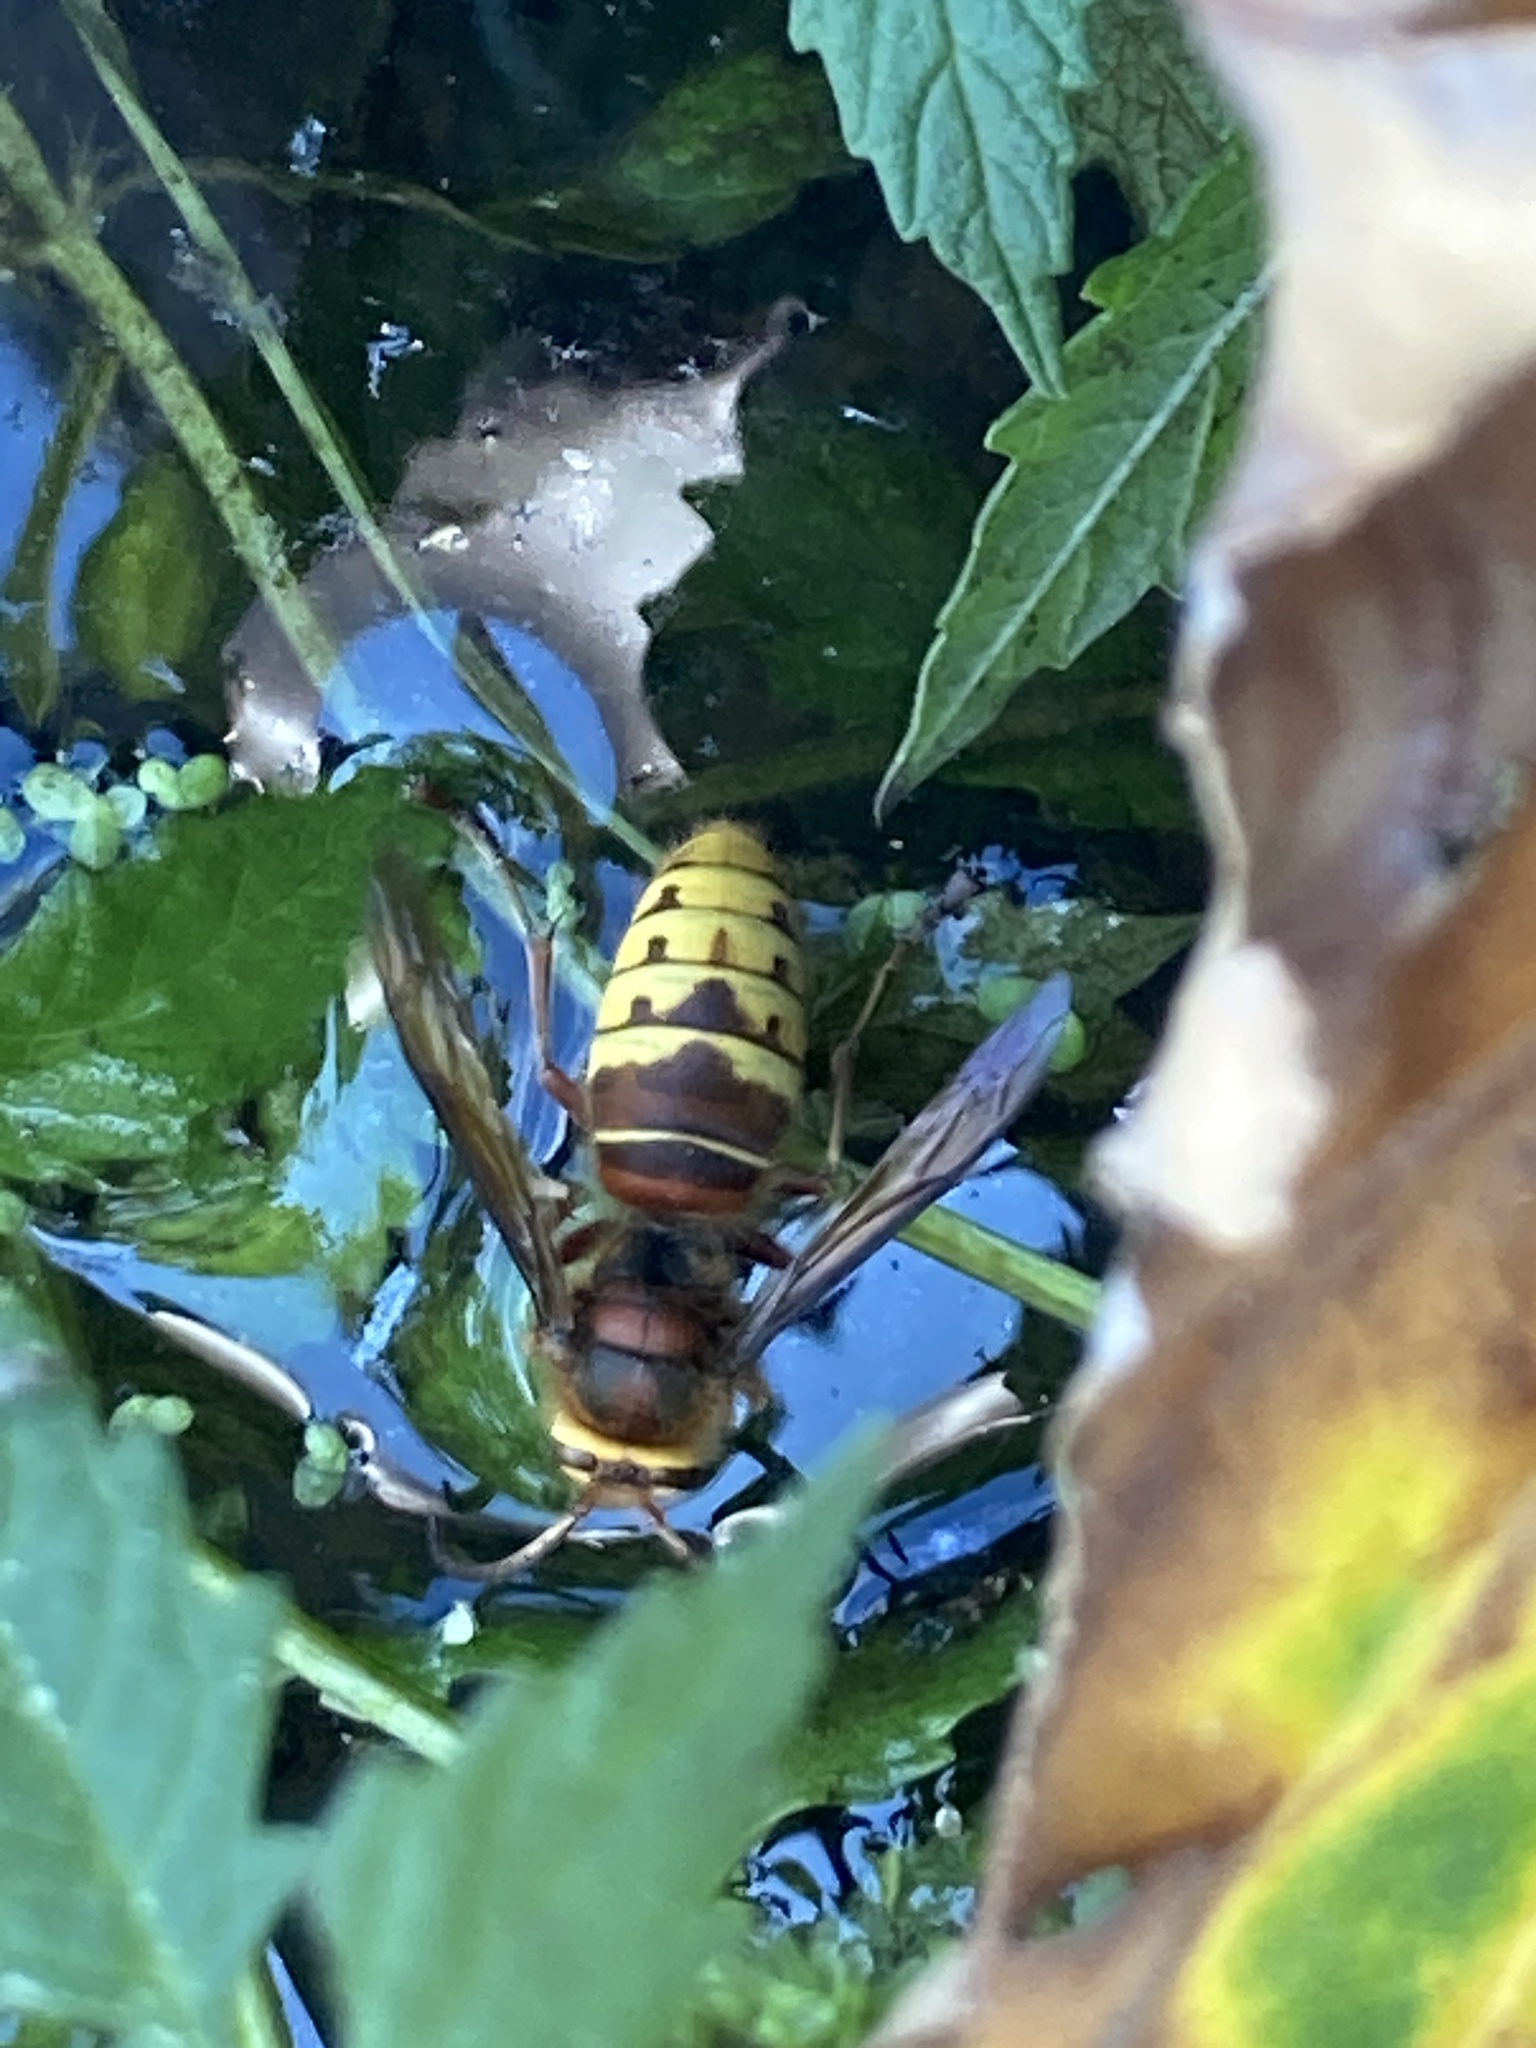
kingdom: Animalia
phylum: Arthropoda
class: Insecta
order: Hymenoptera
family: Vespidae
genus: Vespa
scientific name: Vespa crabro
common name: Hornet
